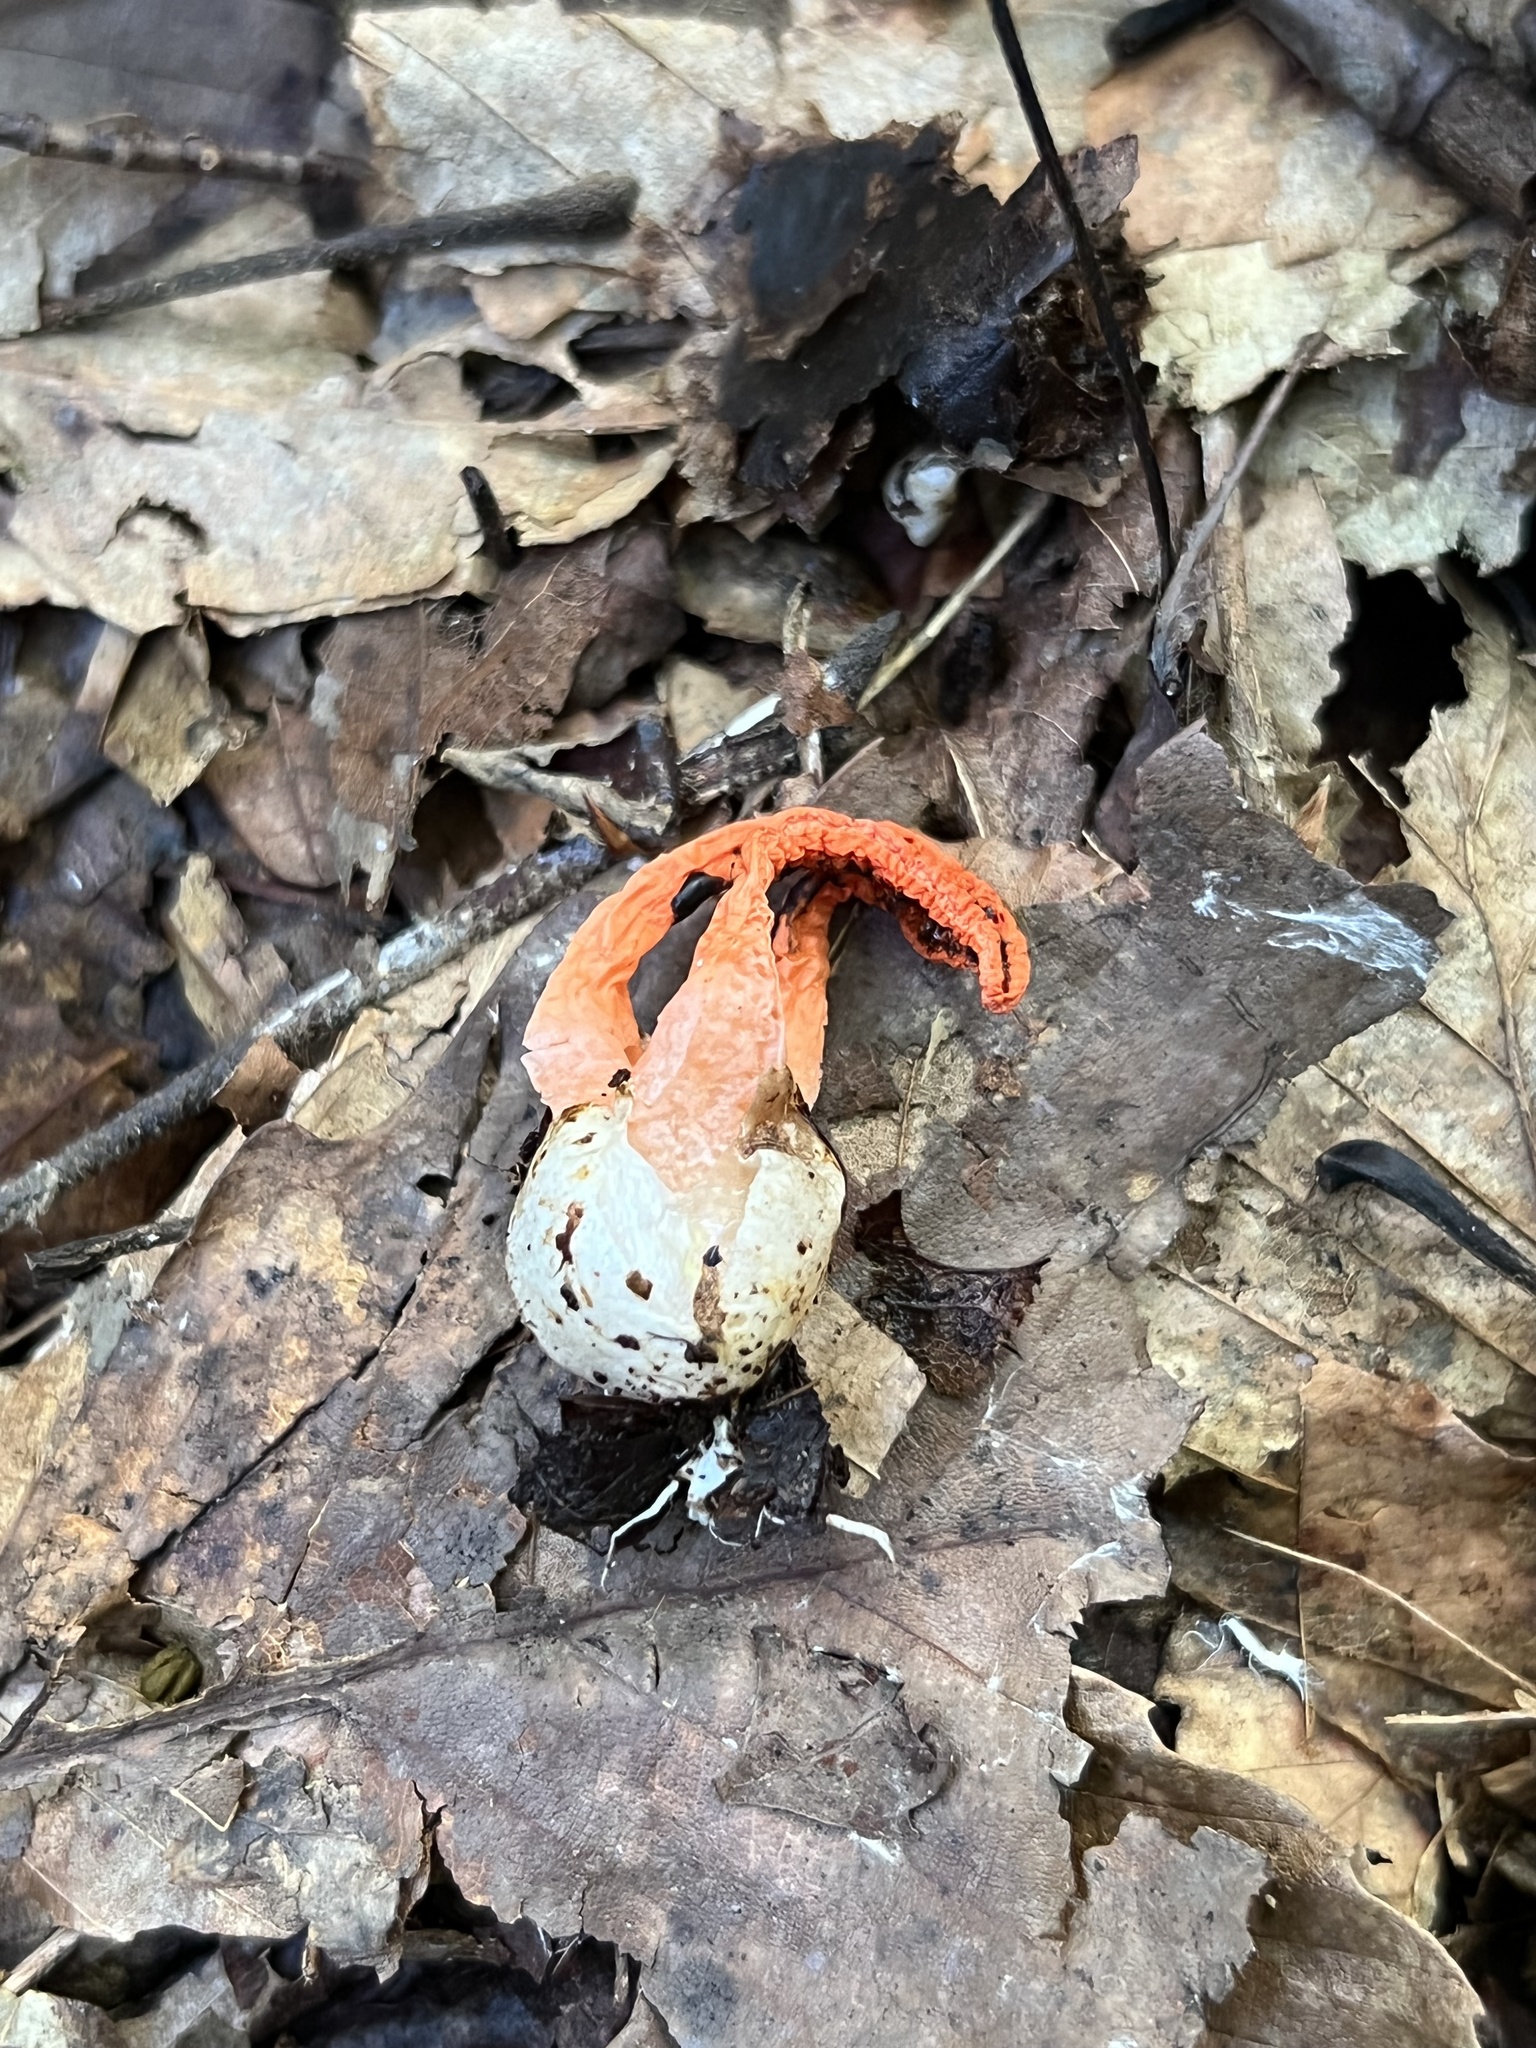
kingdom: Fungi
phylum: Basidiomycota
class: Agaricomycetes
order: Phallales
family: Phallaceae
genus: Pseudocolus
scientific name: Pseudocolus fusiformis
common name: Stinky squid
